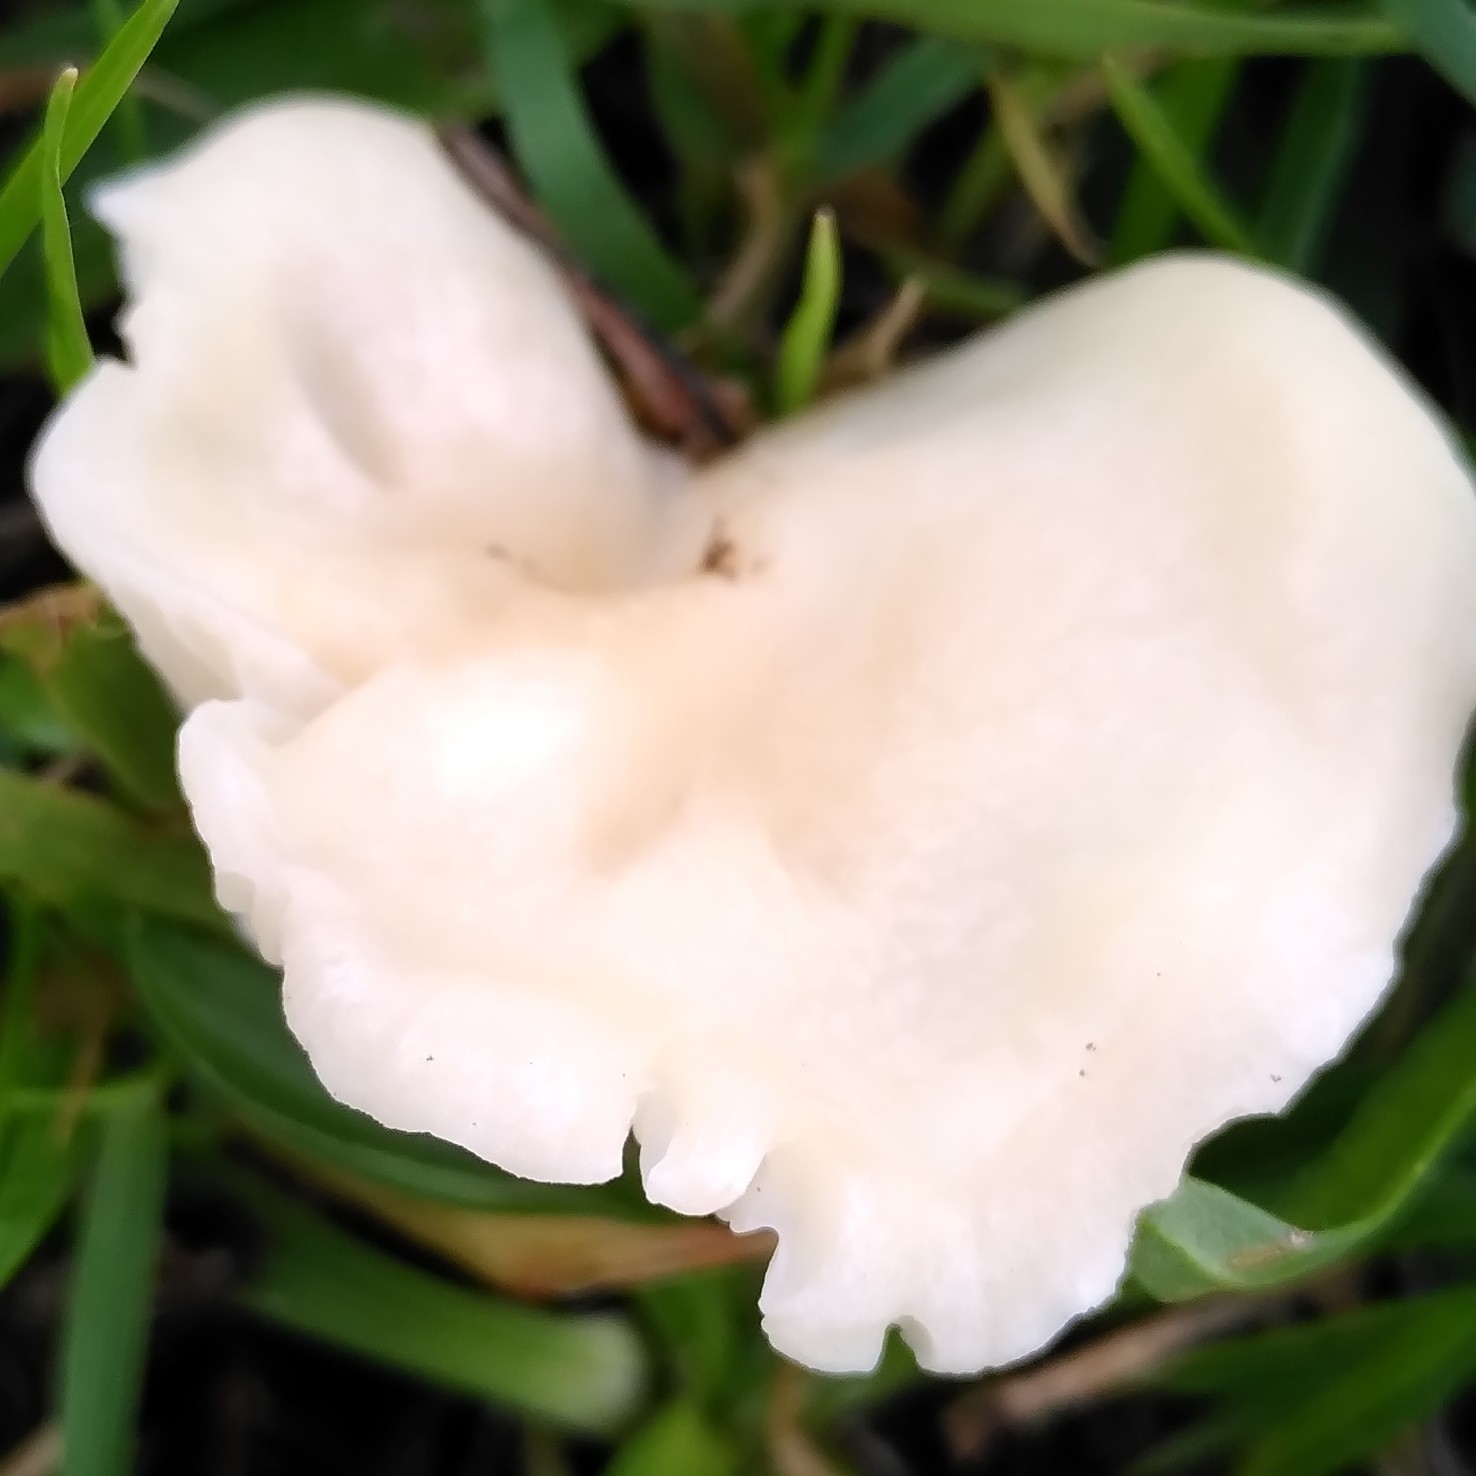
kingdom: Fungi
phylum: Basidiomycota
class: Agaricomycetes
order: Agaricales
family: Hygrophoraceae
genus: Cuphophyllus
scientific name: Cuphophyllus virgineus
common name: Snowy waxcap
